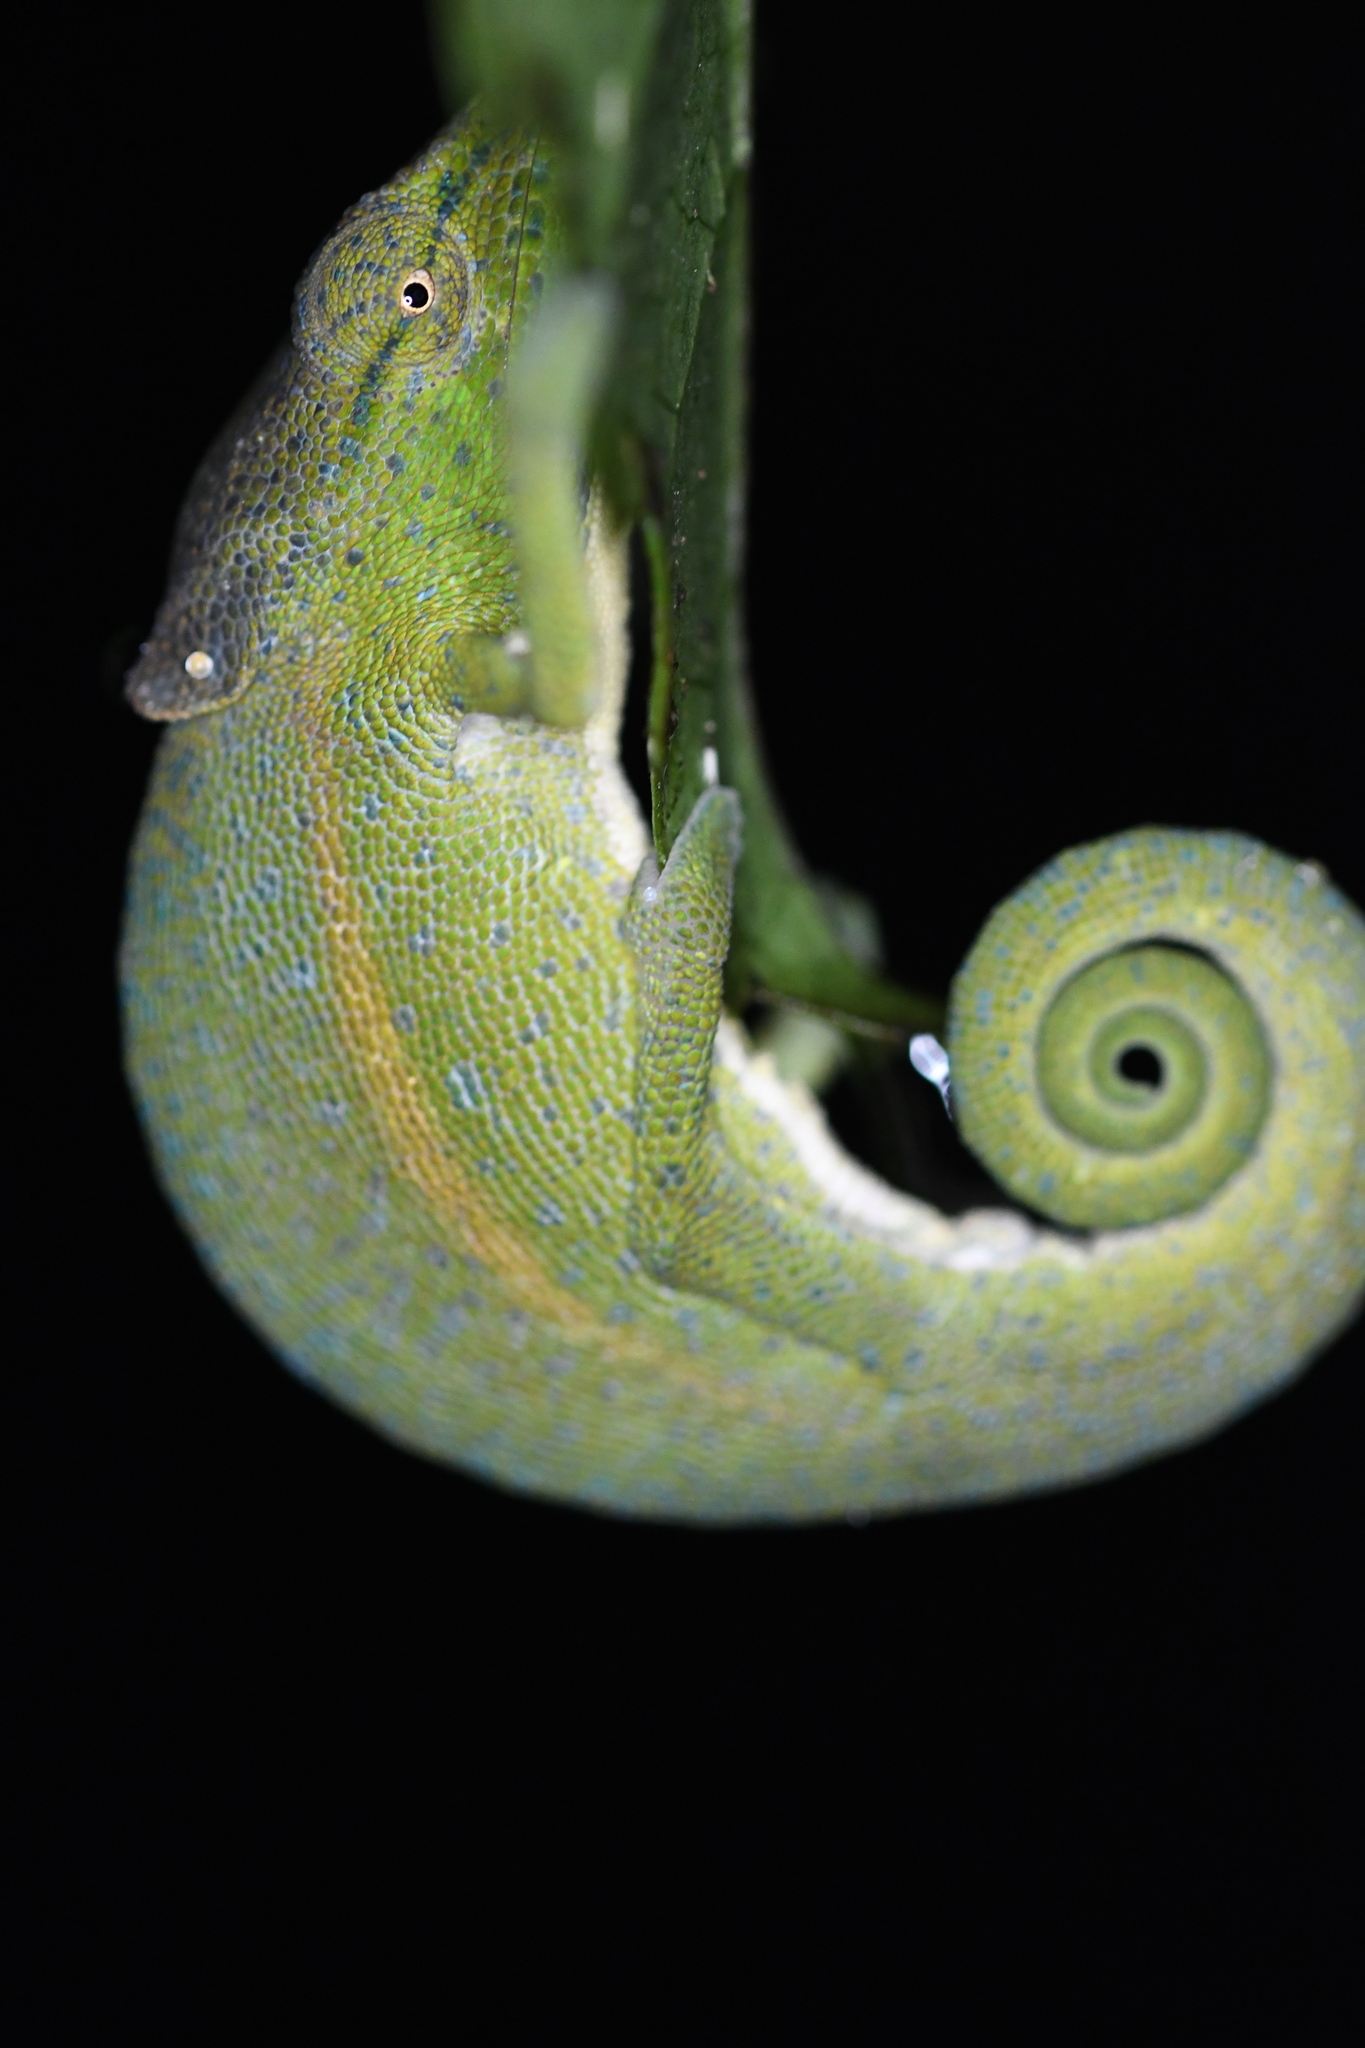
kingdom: Animalia
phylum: Chordata
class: Squamata
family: Chamaeleonidae
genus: Calumma
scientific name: Calumma glawi
